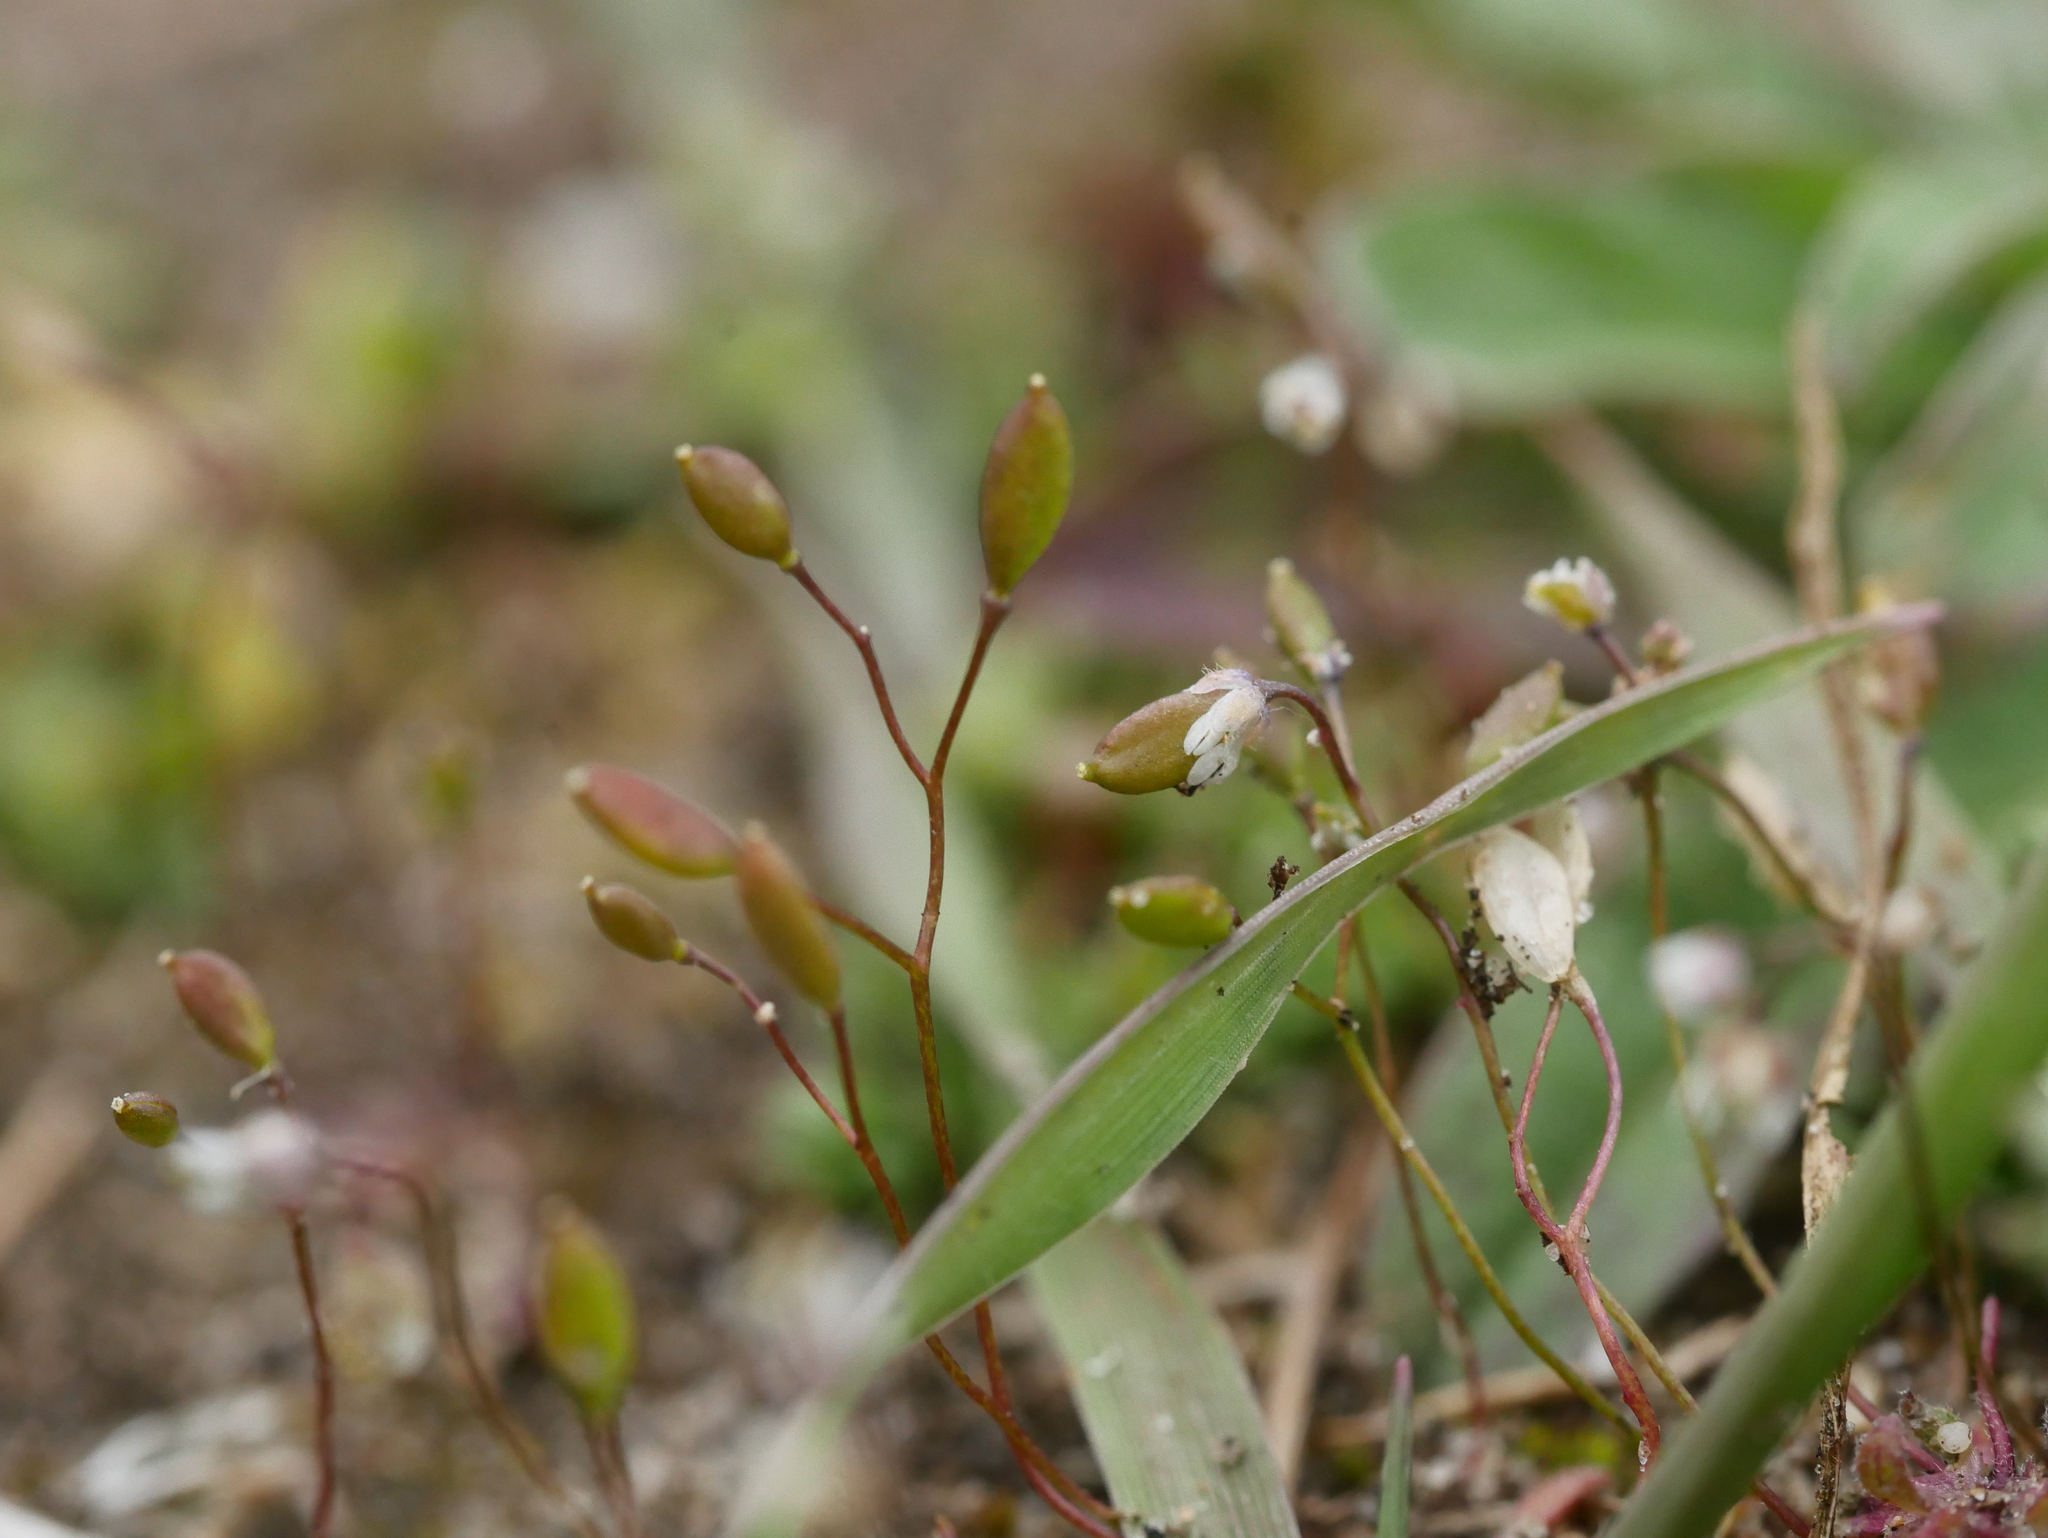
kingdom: Plantae
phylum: Tracheophyta
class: Magnoliopsida
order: Brassicales
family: Brassicaceae
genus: Draba
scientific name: Draba verna
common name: Spring draba
